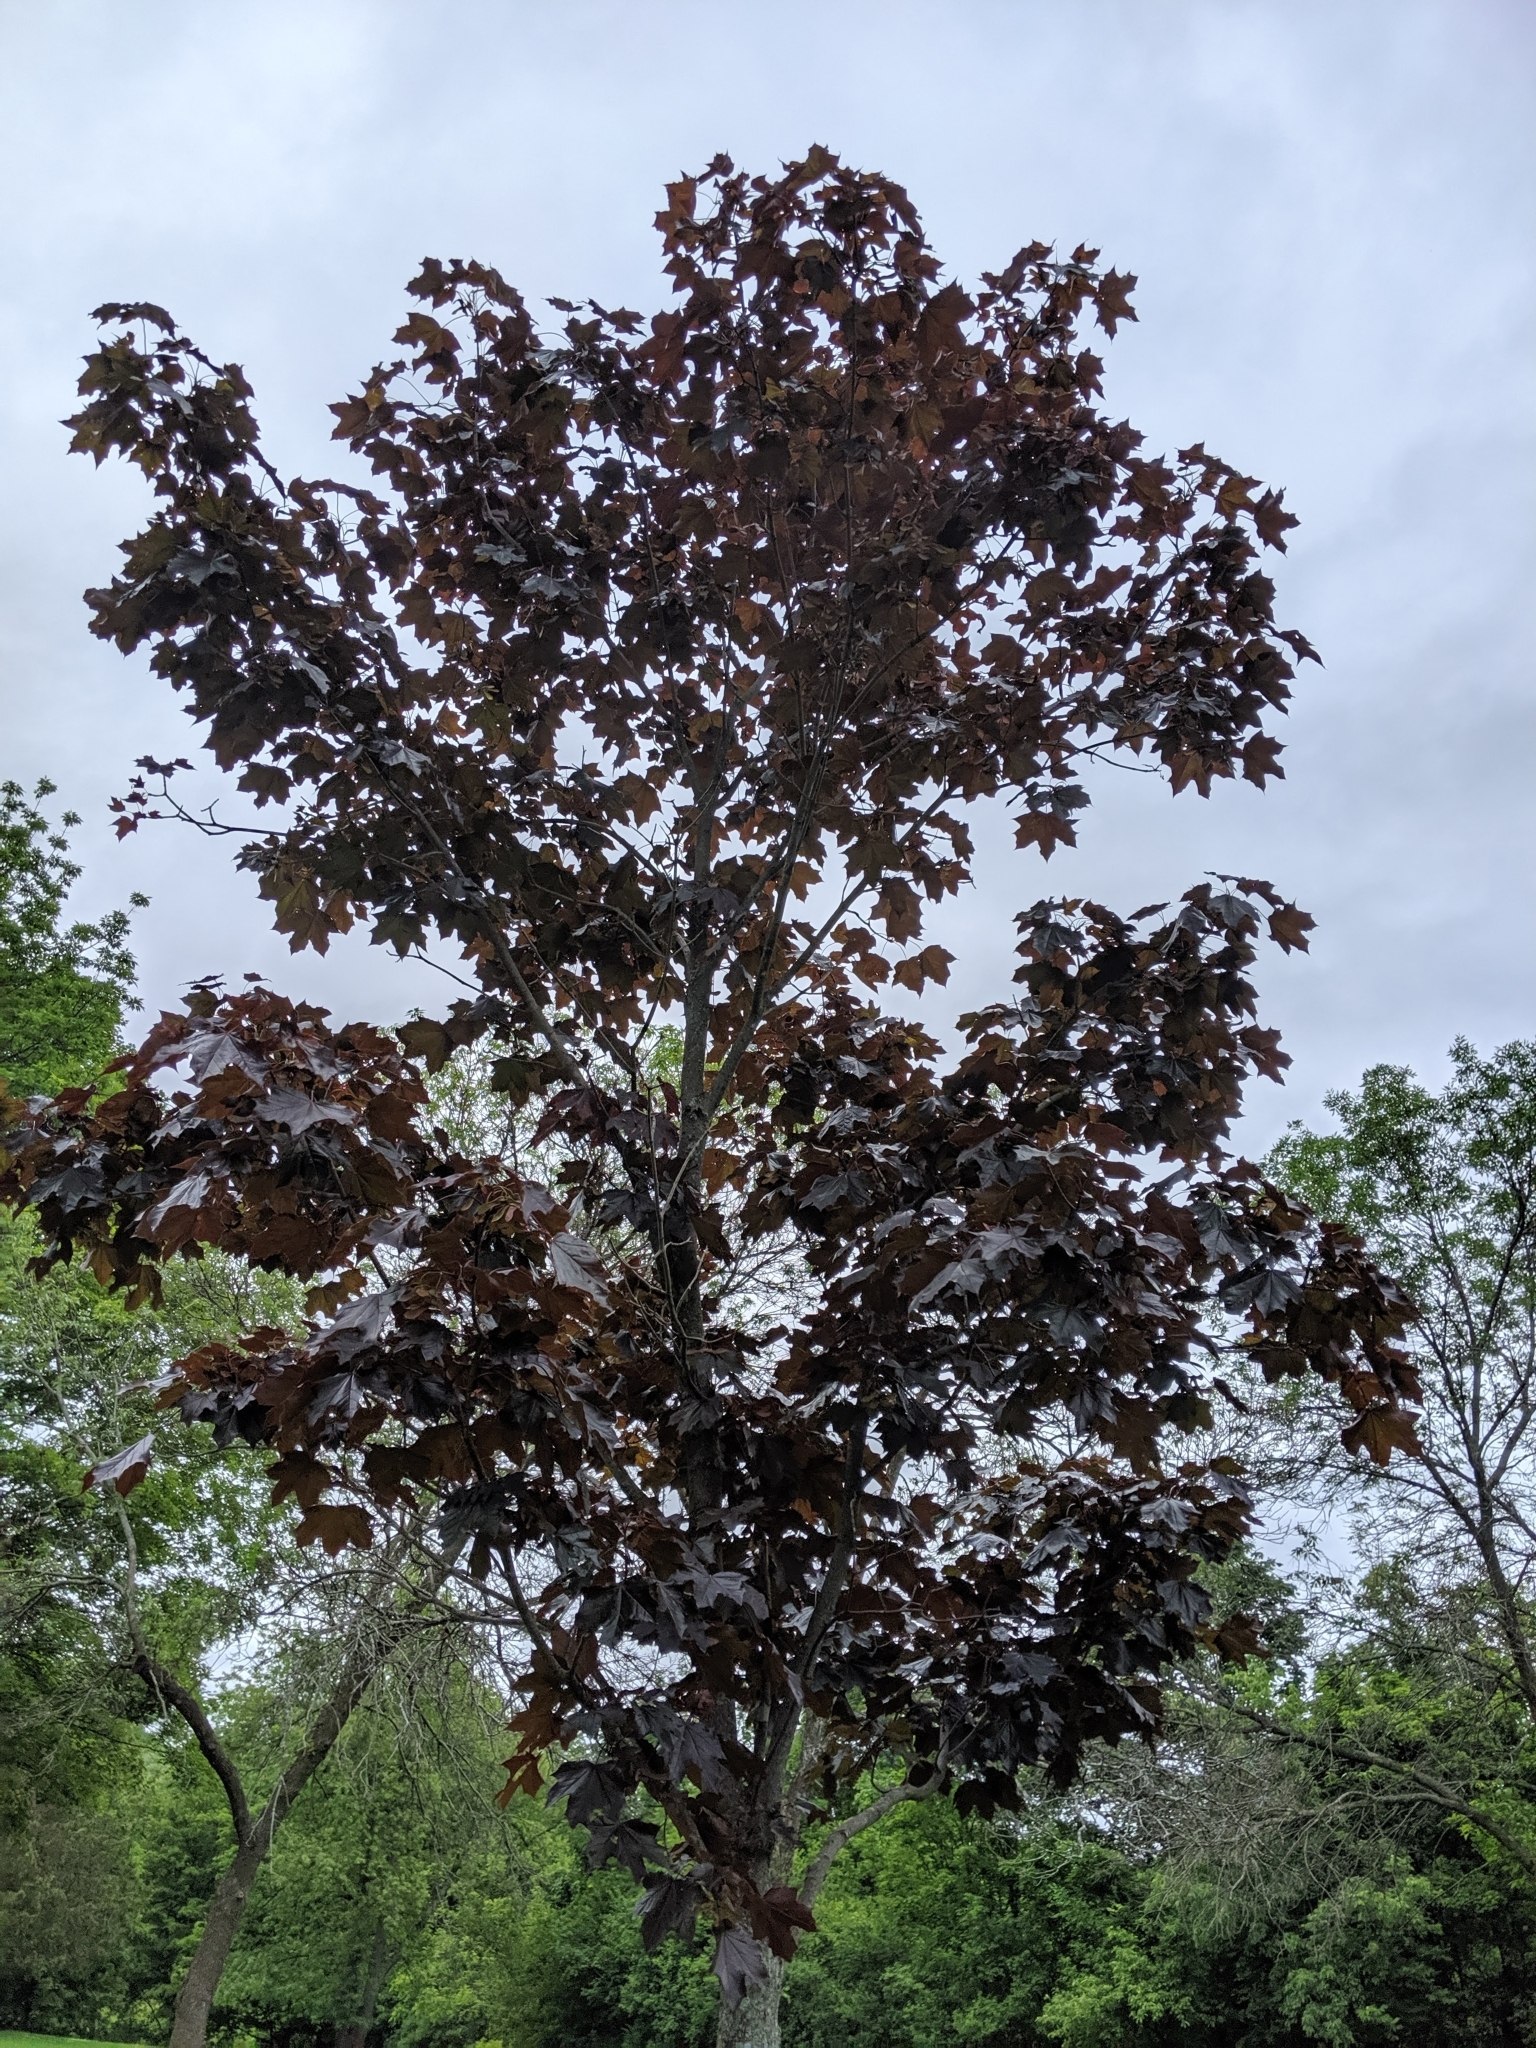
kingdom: Plantae
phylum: Tracheophyta
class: Magnoliopsida
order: Sapindales
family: Sapindaceae
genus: Acer
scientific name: Acer platanoides
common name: Norway maple
